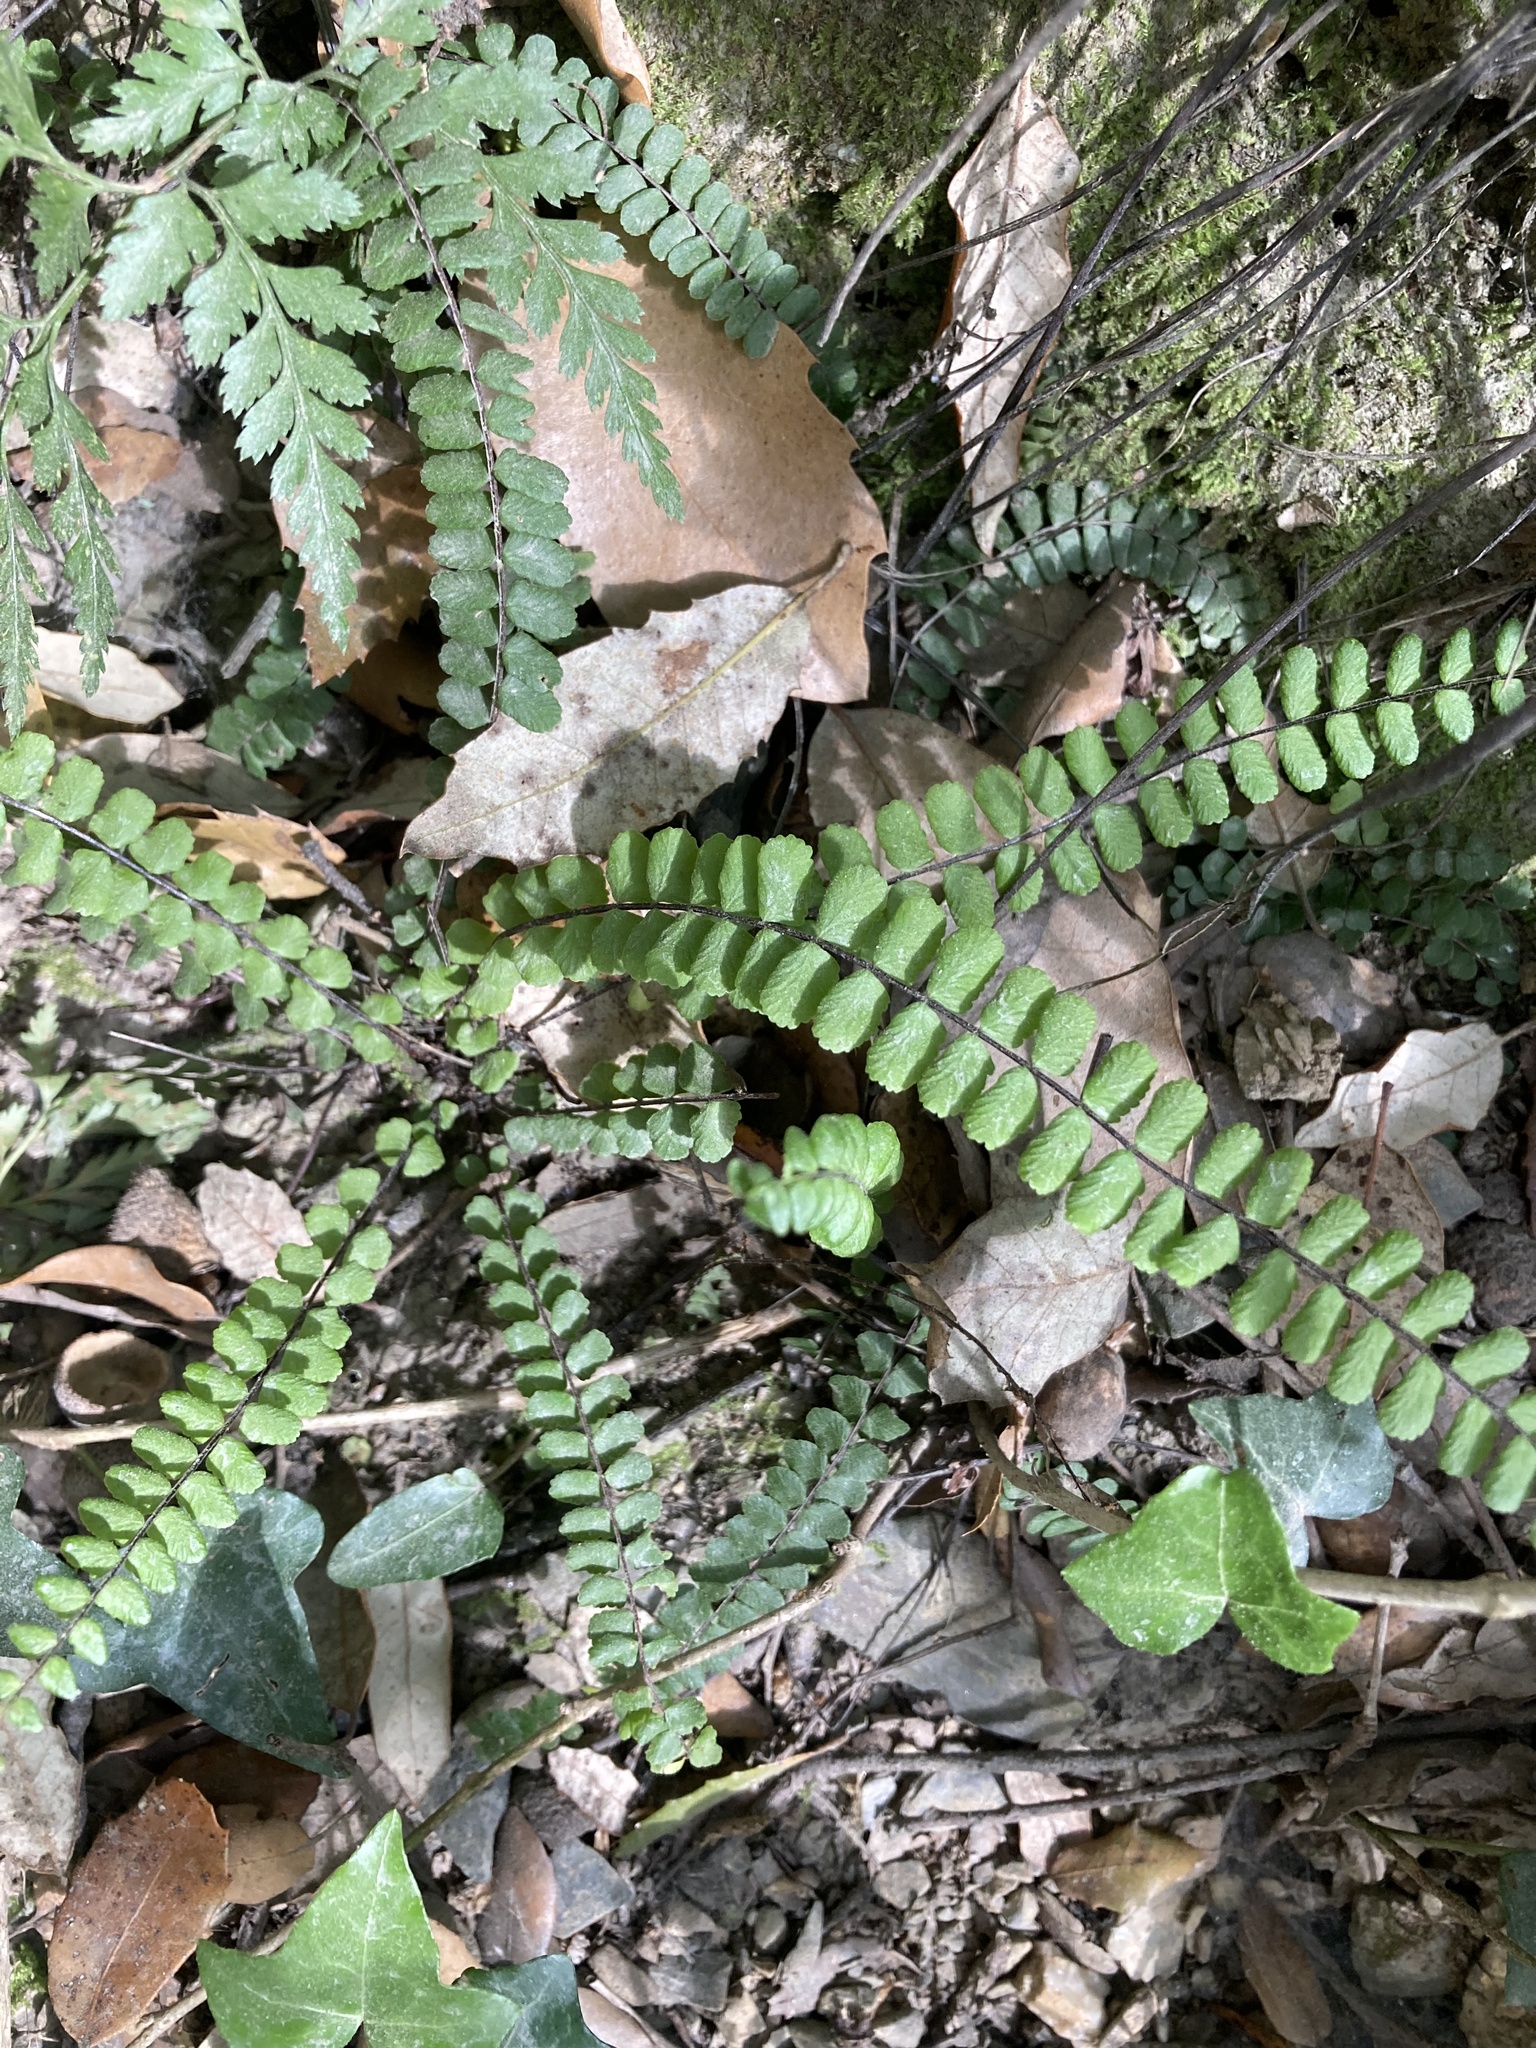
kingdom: Plantae
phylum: Tracheophyta
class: Polypodiopsida
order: Polypodiales
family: Aspleniaceae
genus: Asplenium
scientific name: Asplenium trichomanes
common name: Maidenhair spleenwort
